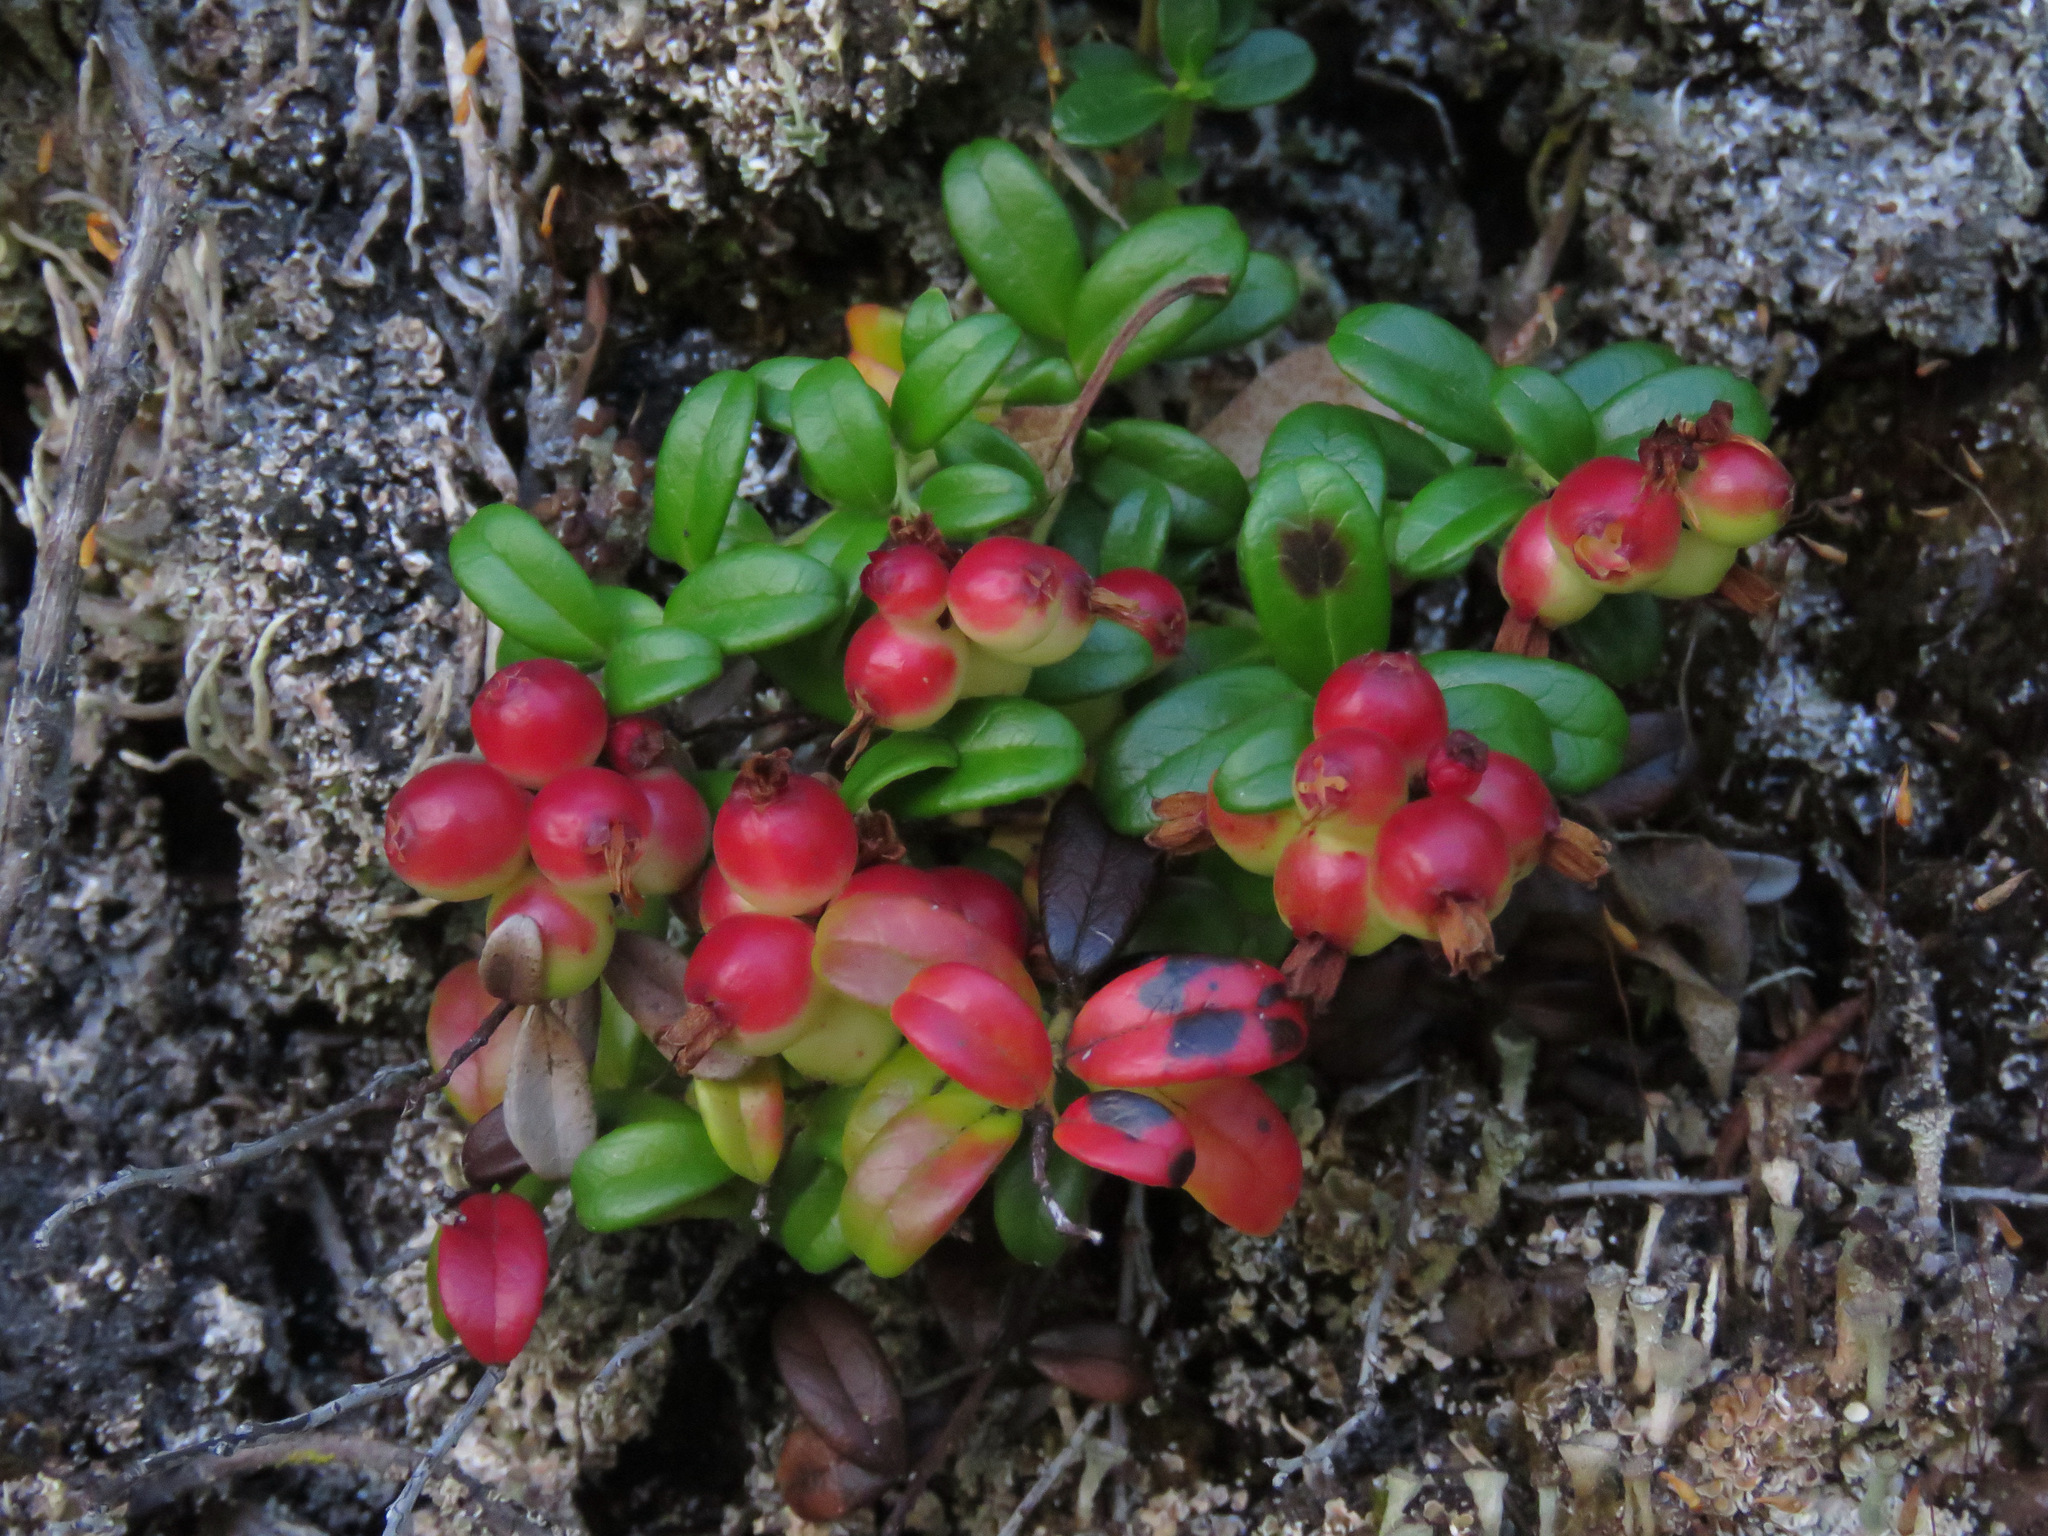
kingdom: Plantae
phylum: Tracheophyta
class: Magnoliopsida
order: Ericales
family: Ericaceae
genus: Vaccinium
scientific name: Vaccinium vitis-idaea
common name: Cowberry
